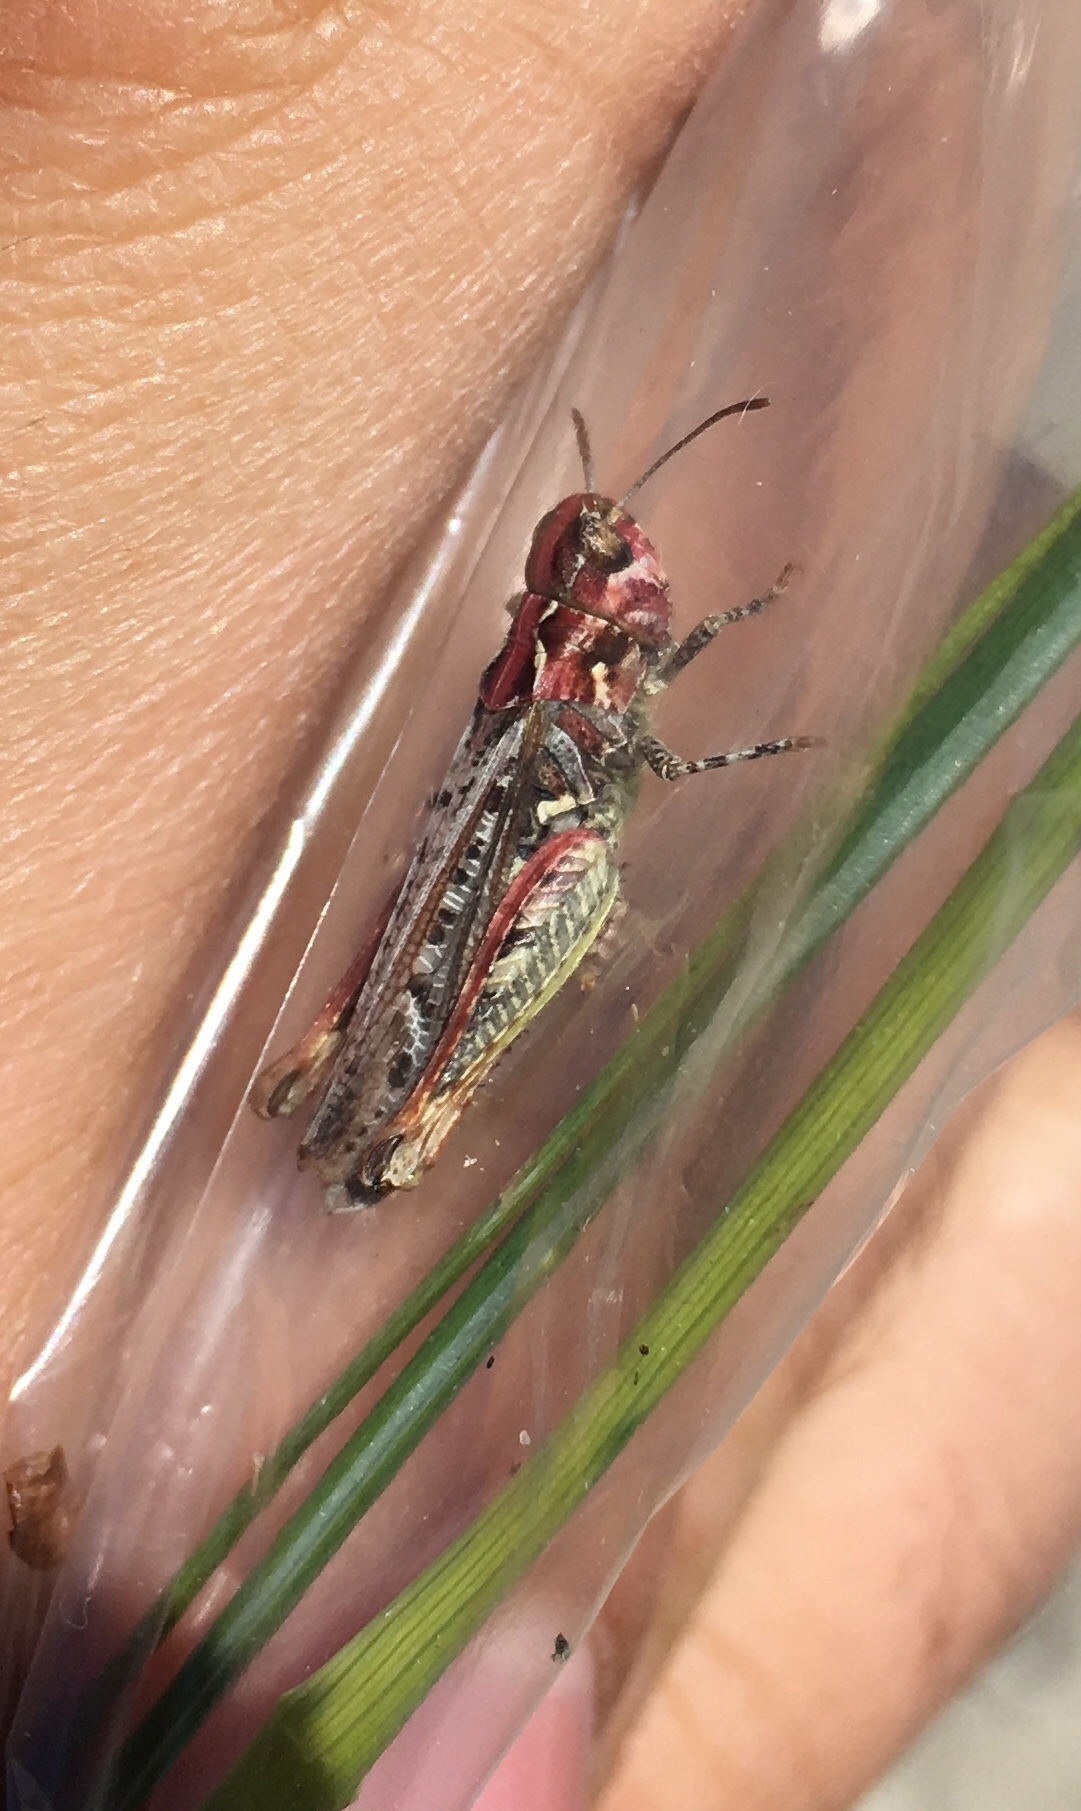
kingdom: Animalia
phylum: Arthropoda
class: Insecta
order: Orthoptera
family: Acrididae
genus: Myrmeleotettix
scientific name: Myrmeleotettix maculatus
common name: Mottled grasshopper
